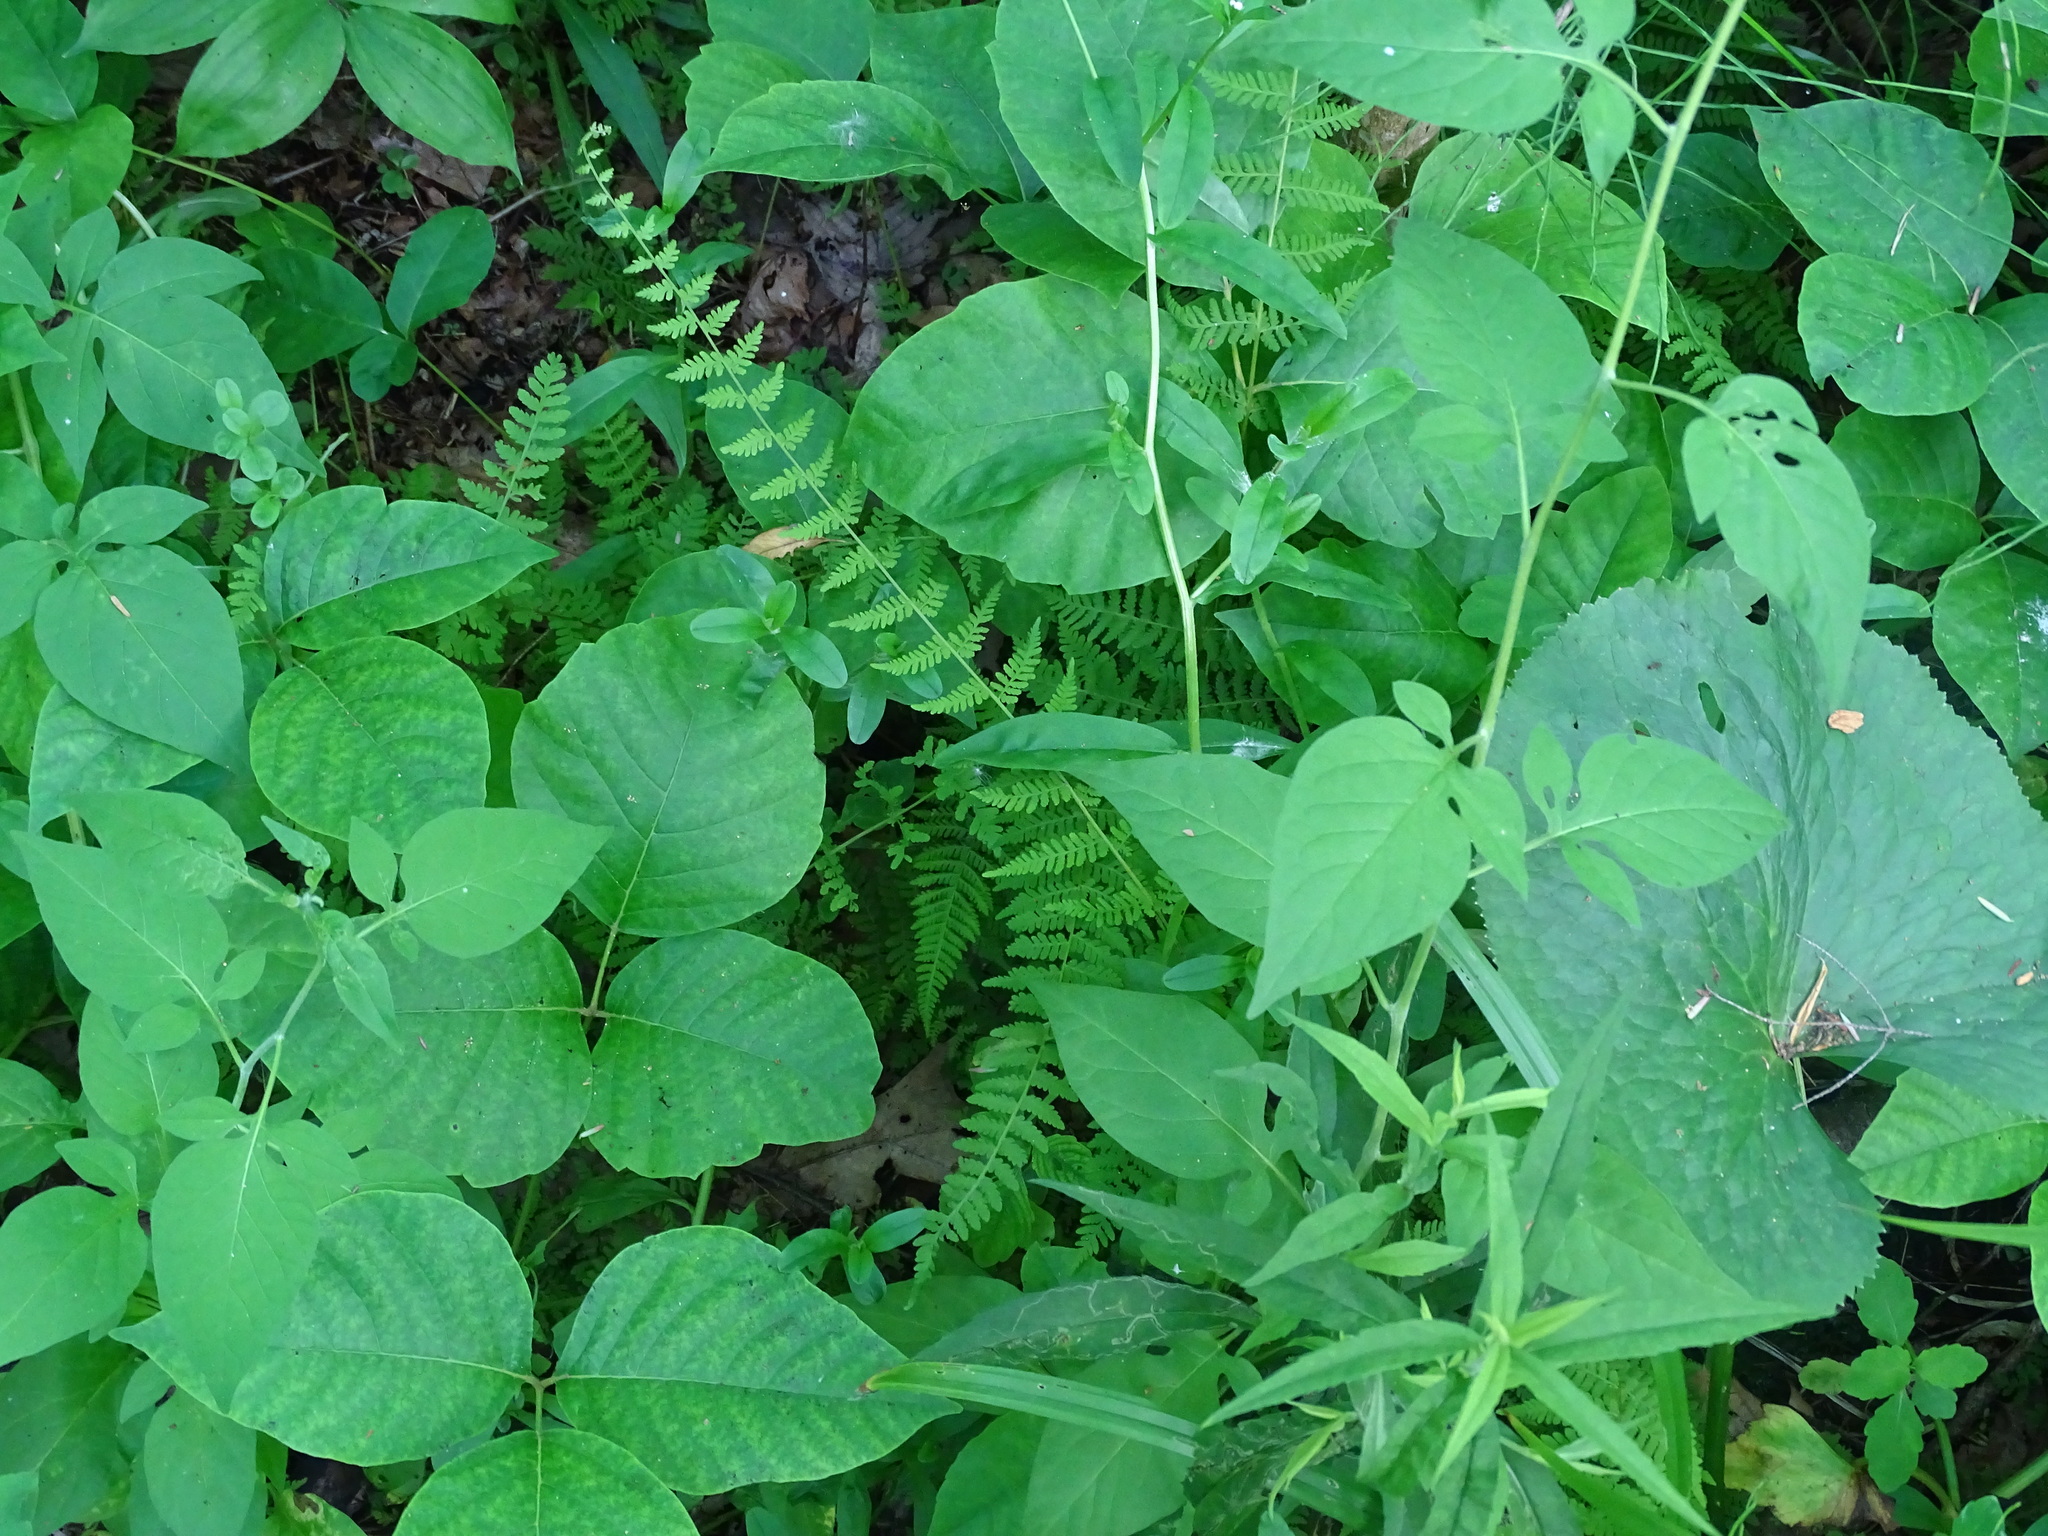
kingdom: Plantae
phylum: Tracheophyta
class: Polypodiopsida
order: Polypodiales
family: Cystopteridaceae
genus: Cystopteris
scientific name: Cystopteris bulbifera
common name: Bulblet bladder fern
